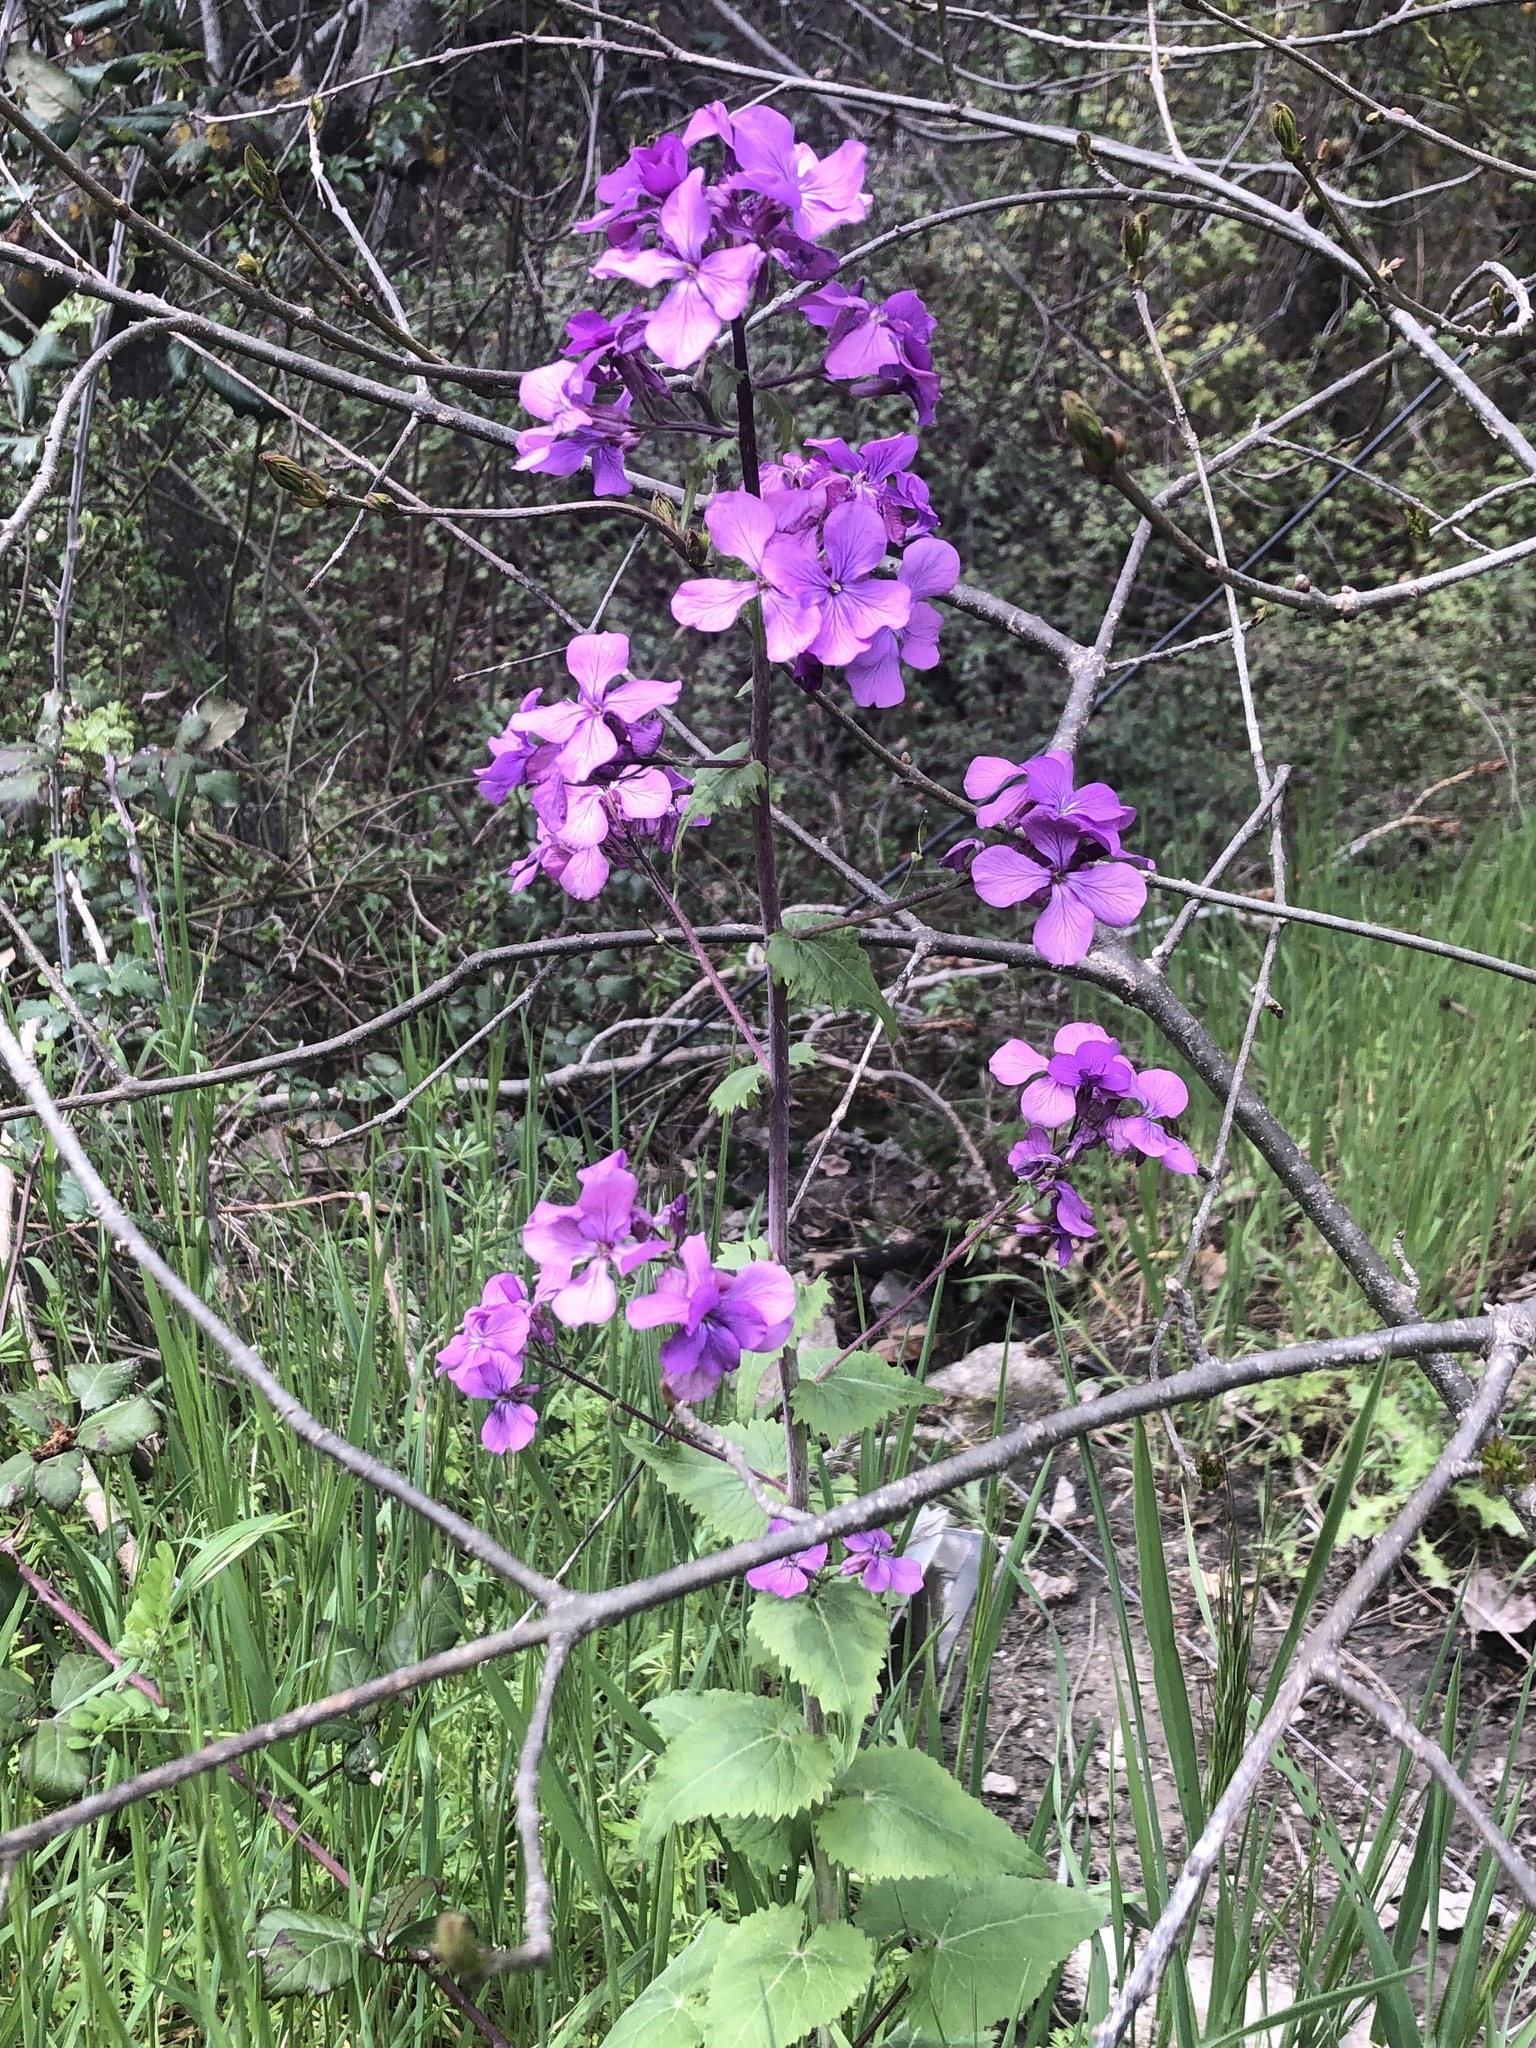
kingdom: Plantae
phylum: Tracheophyta
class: Magnoliopsida
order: Brassicales
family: Brassicaceae
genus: Lunaria
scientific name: Lunaria annua
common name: Honesty
